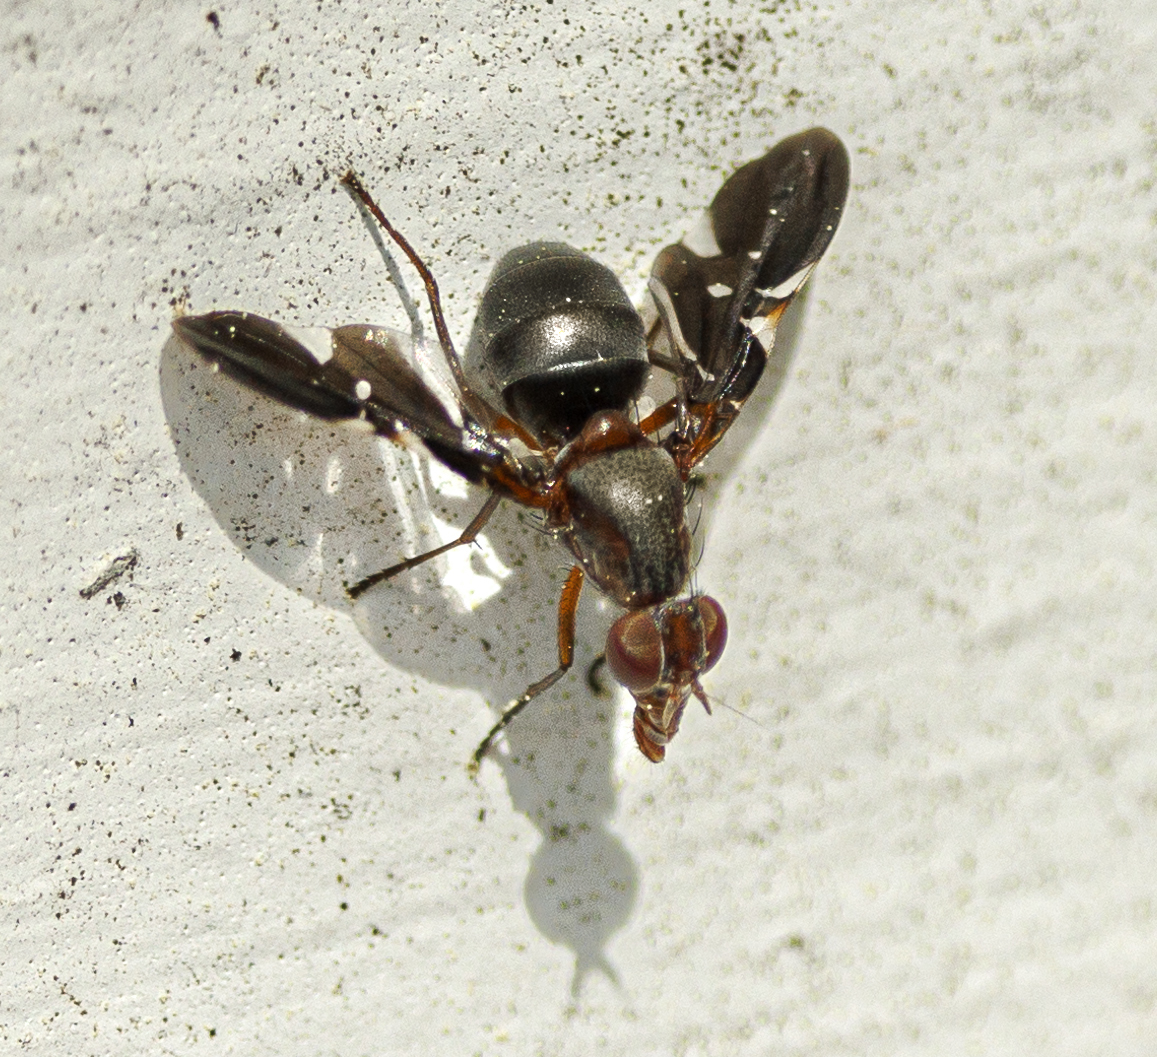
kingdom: Animalia
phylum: Arthropoda
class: Insecta
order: Diptera
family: Ulidiidae
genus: Delphinia
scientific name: Delphinia picta
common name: Common picture-winged fly
